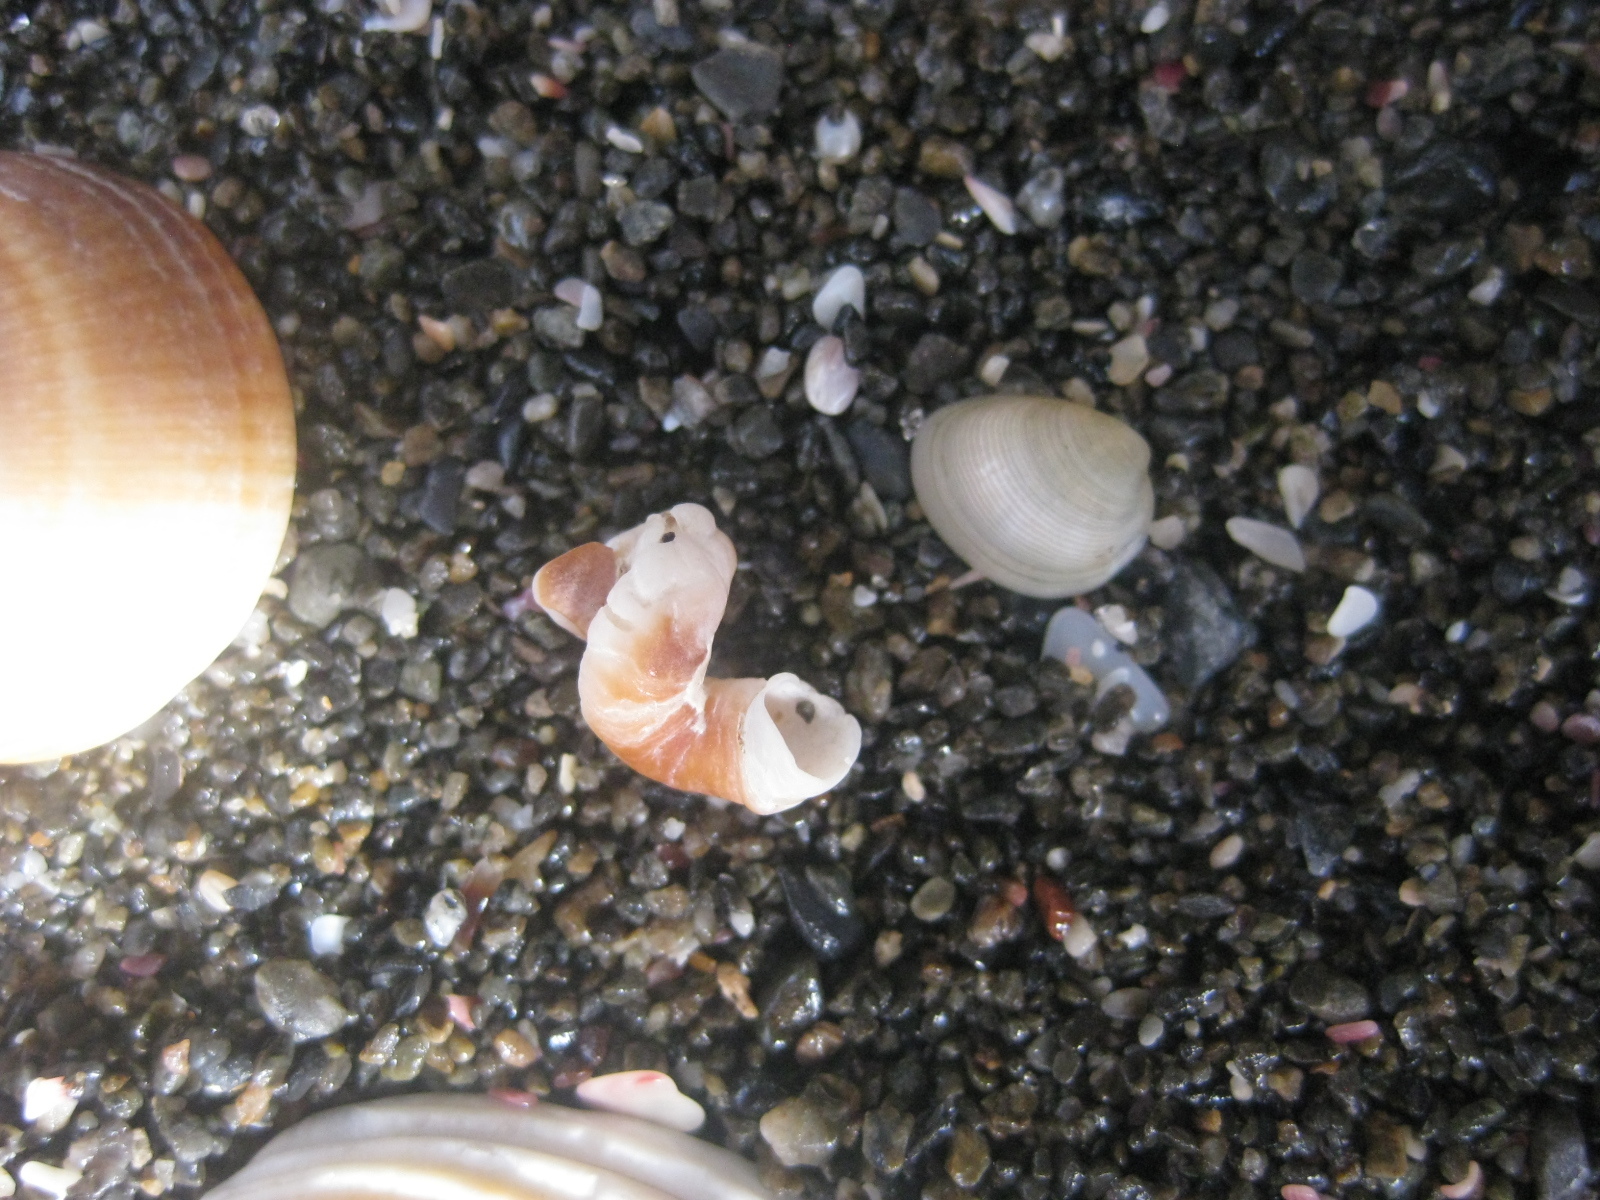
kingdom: Animalia
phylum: Mollusca
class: Gastropoda
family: Siliquariidae
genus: Stephopoma
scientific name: Stephopoma roseum
